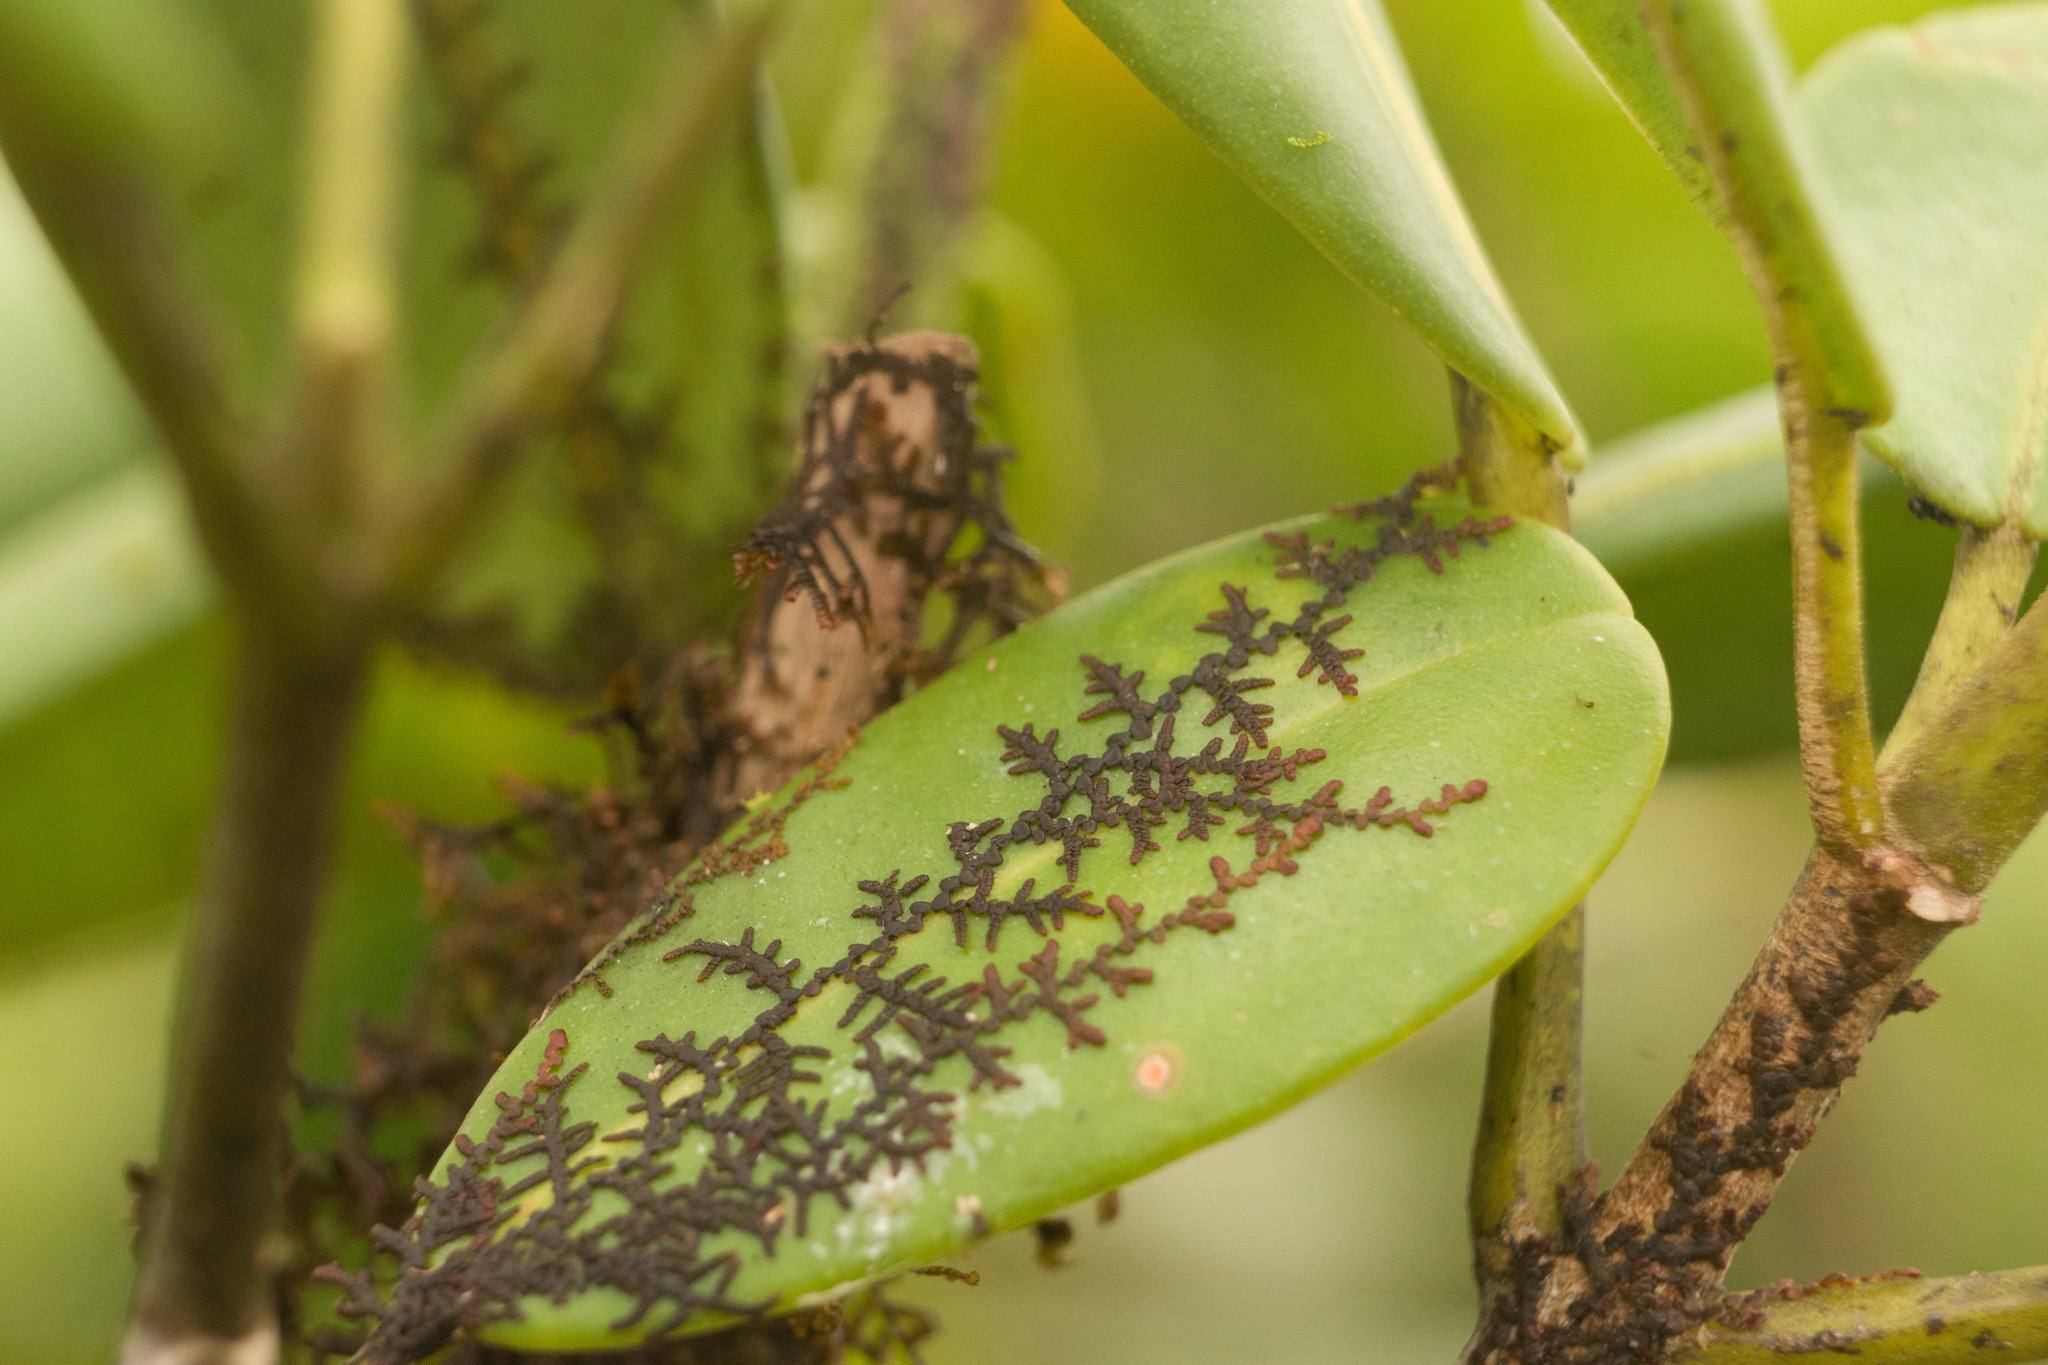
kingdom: Plantae
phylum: Marchantiophyta
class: Jungermanniopsida
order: Porellales
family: Frullaniaceae
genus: Frullania
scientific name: Frullania meyeniana
